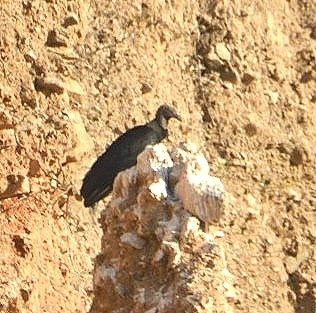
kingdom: Animalia
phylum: Chordata
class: Aves
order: Accipitriformes
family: Cathartidae
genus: Coragyps
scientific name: Coragyps atratus
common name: Black vulture
